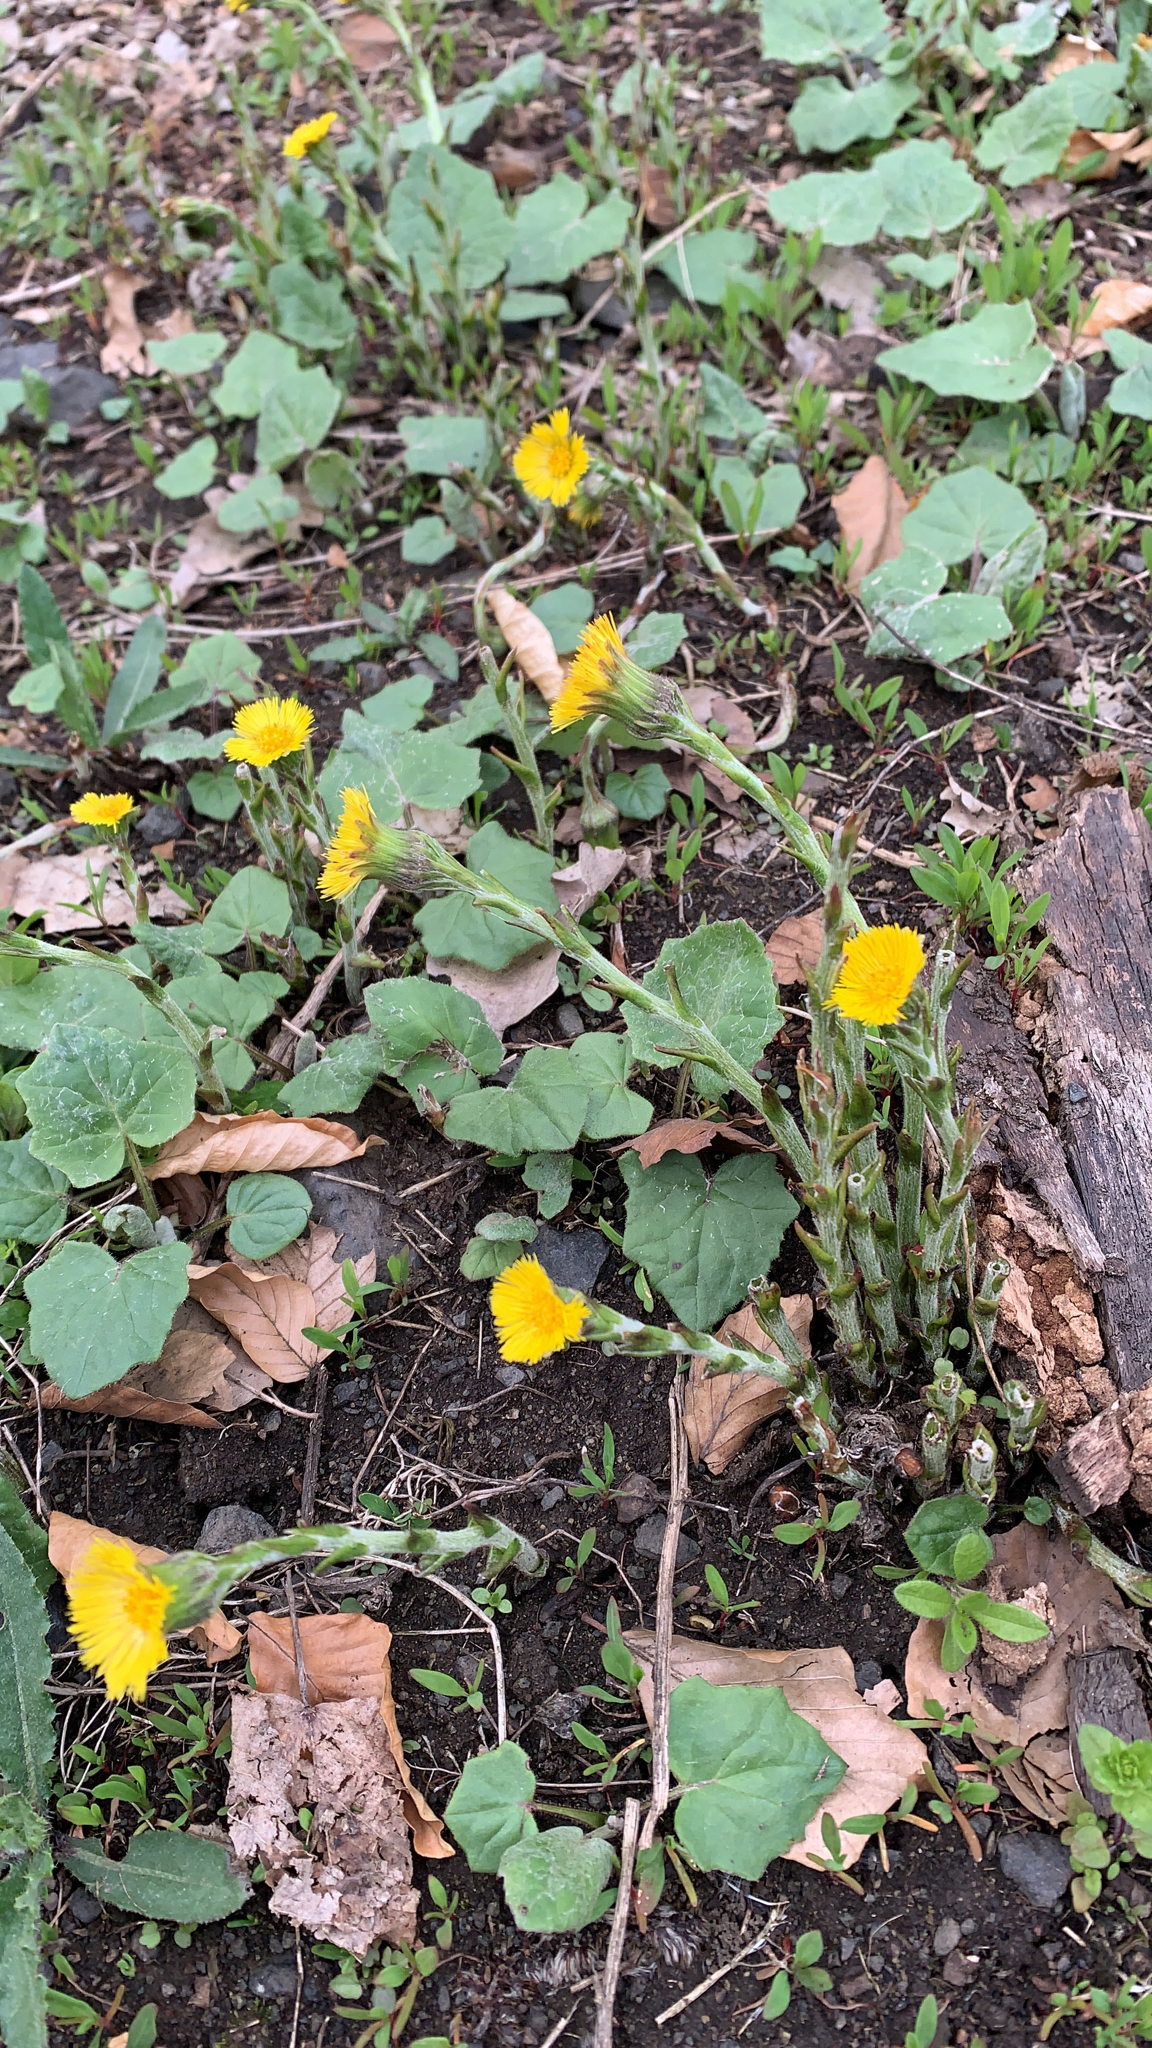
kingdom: Plantae
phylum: Tracheophyta
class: Magnoliopsida
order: Asterales
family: Asteraceae
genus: Tussilago
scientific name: Tussilago farfara
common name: Coltsfoot
